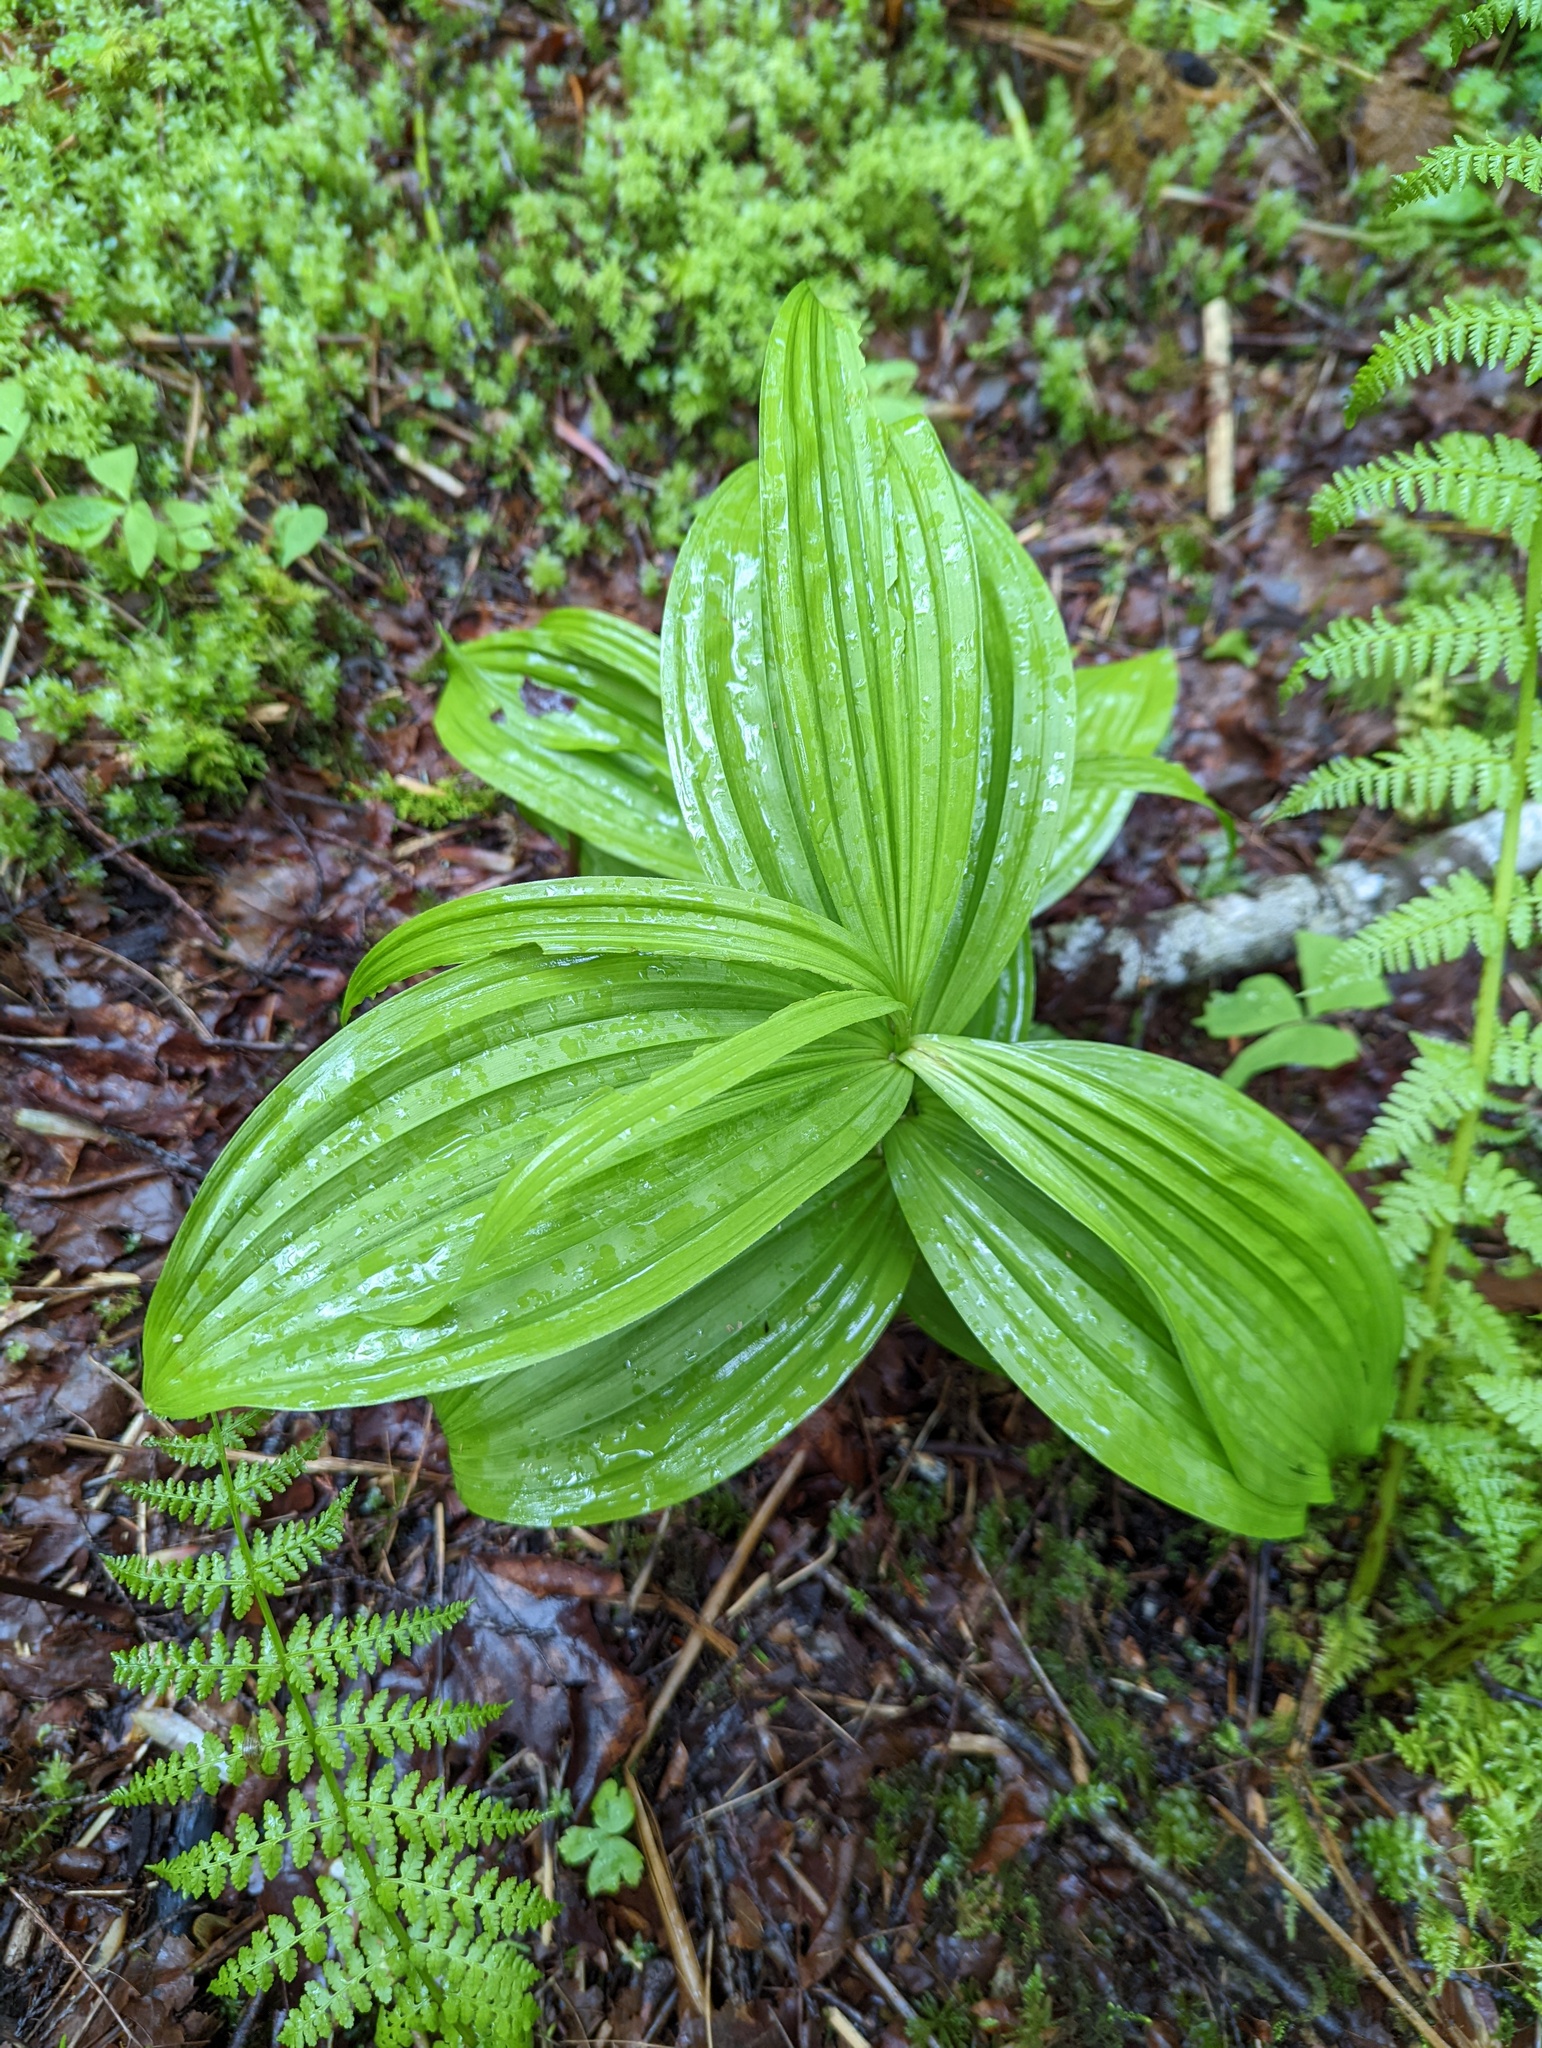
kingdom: Plantae
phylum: Tracheophyta
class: Liliopsida
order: Liliales
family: Melanthiaceae
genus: Veratrum
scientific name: Veratrum viride
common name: American false hellebore
